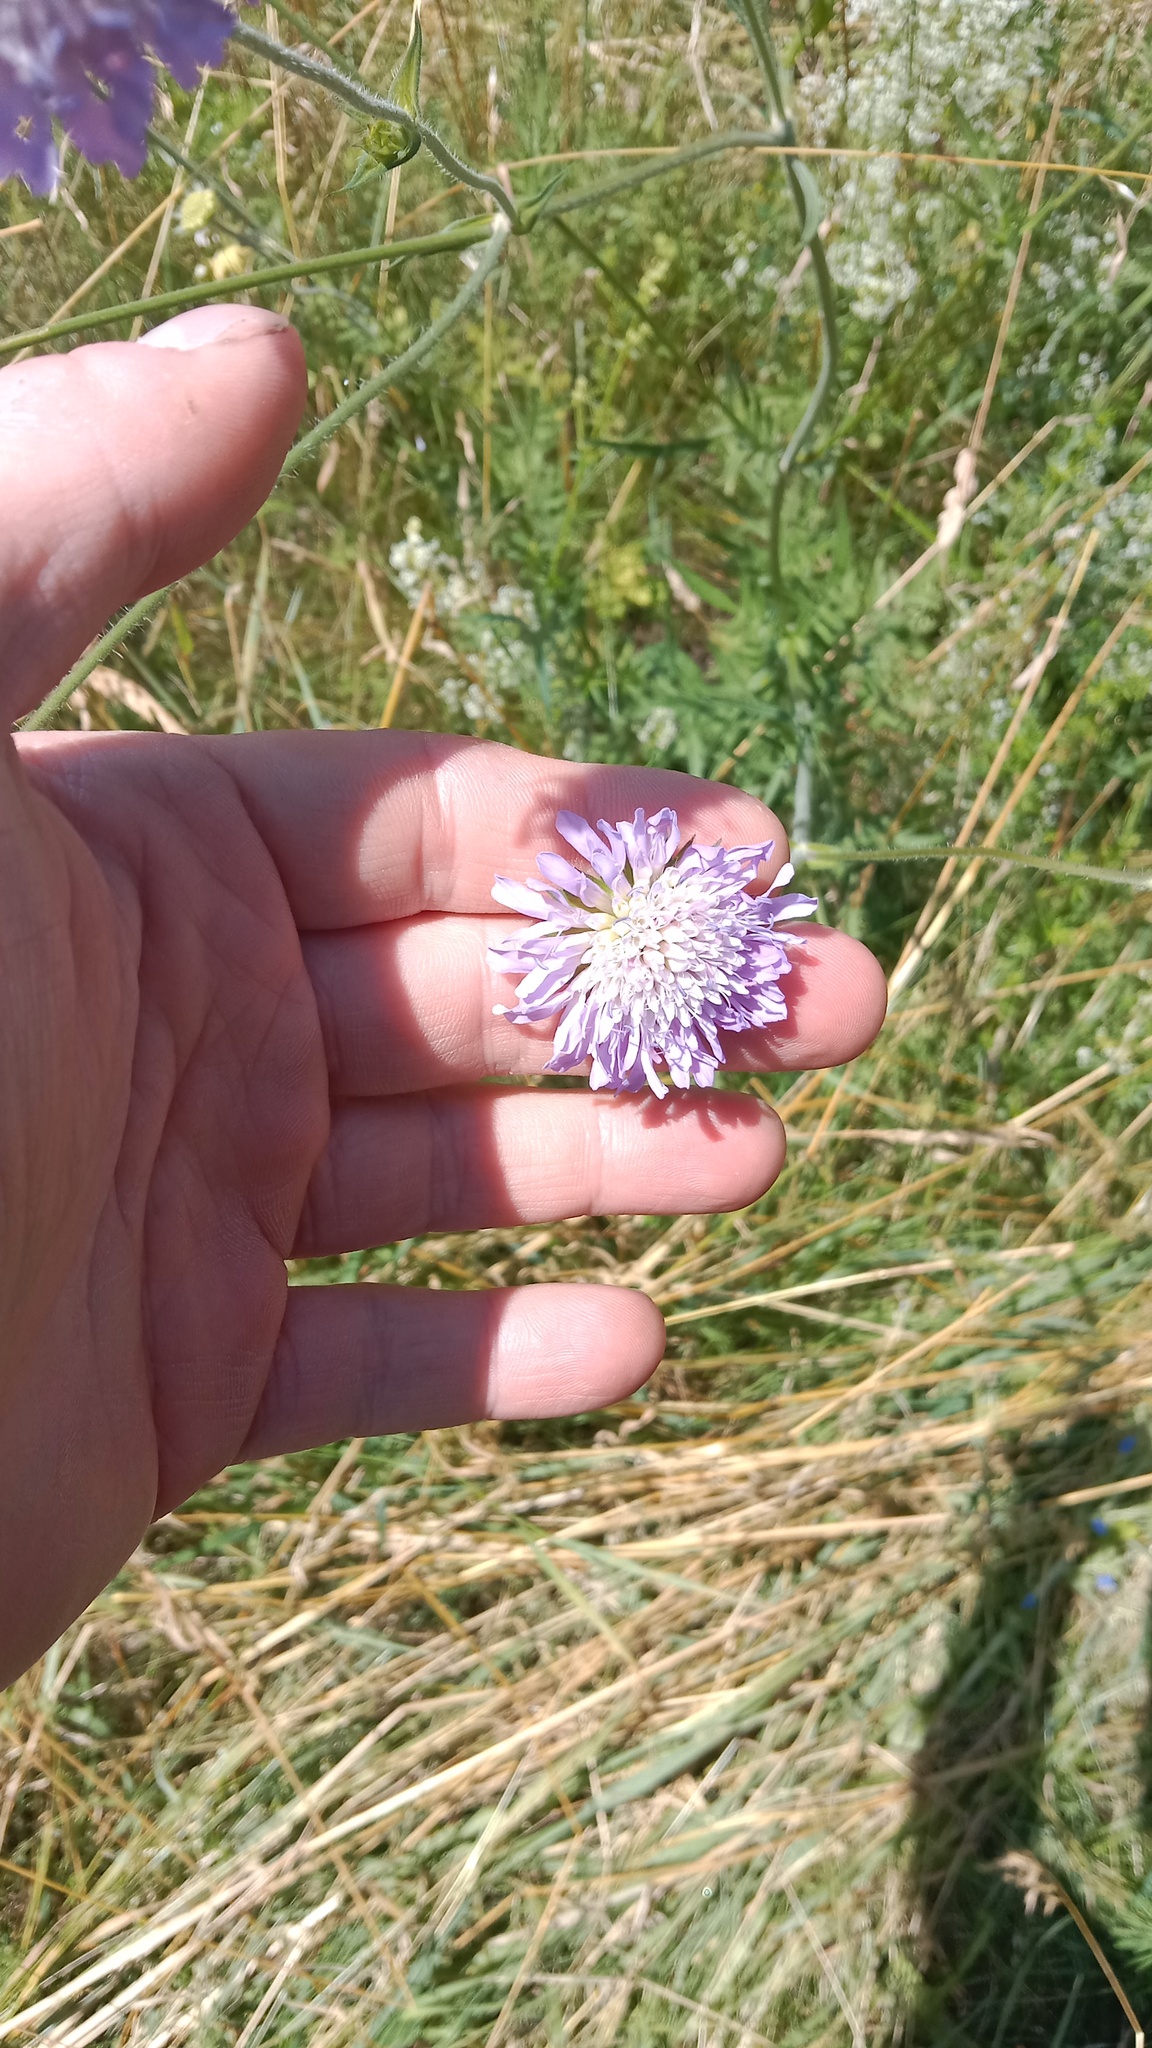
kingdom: Plantae
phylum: Tracheophyta
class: Magnoliopsida
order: Dipsacales
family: Caprifoliaceae
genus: Knautia
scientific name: Knautia arvensis
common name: Field scabiosa
